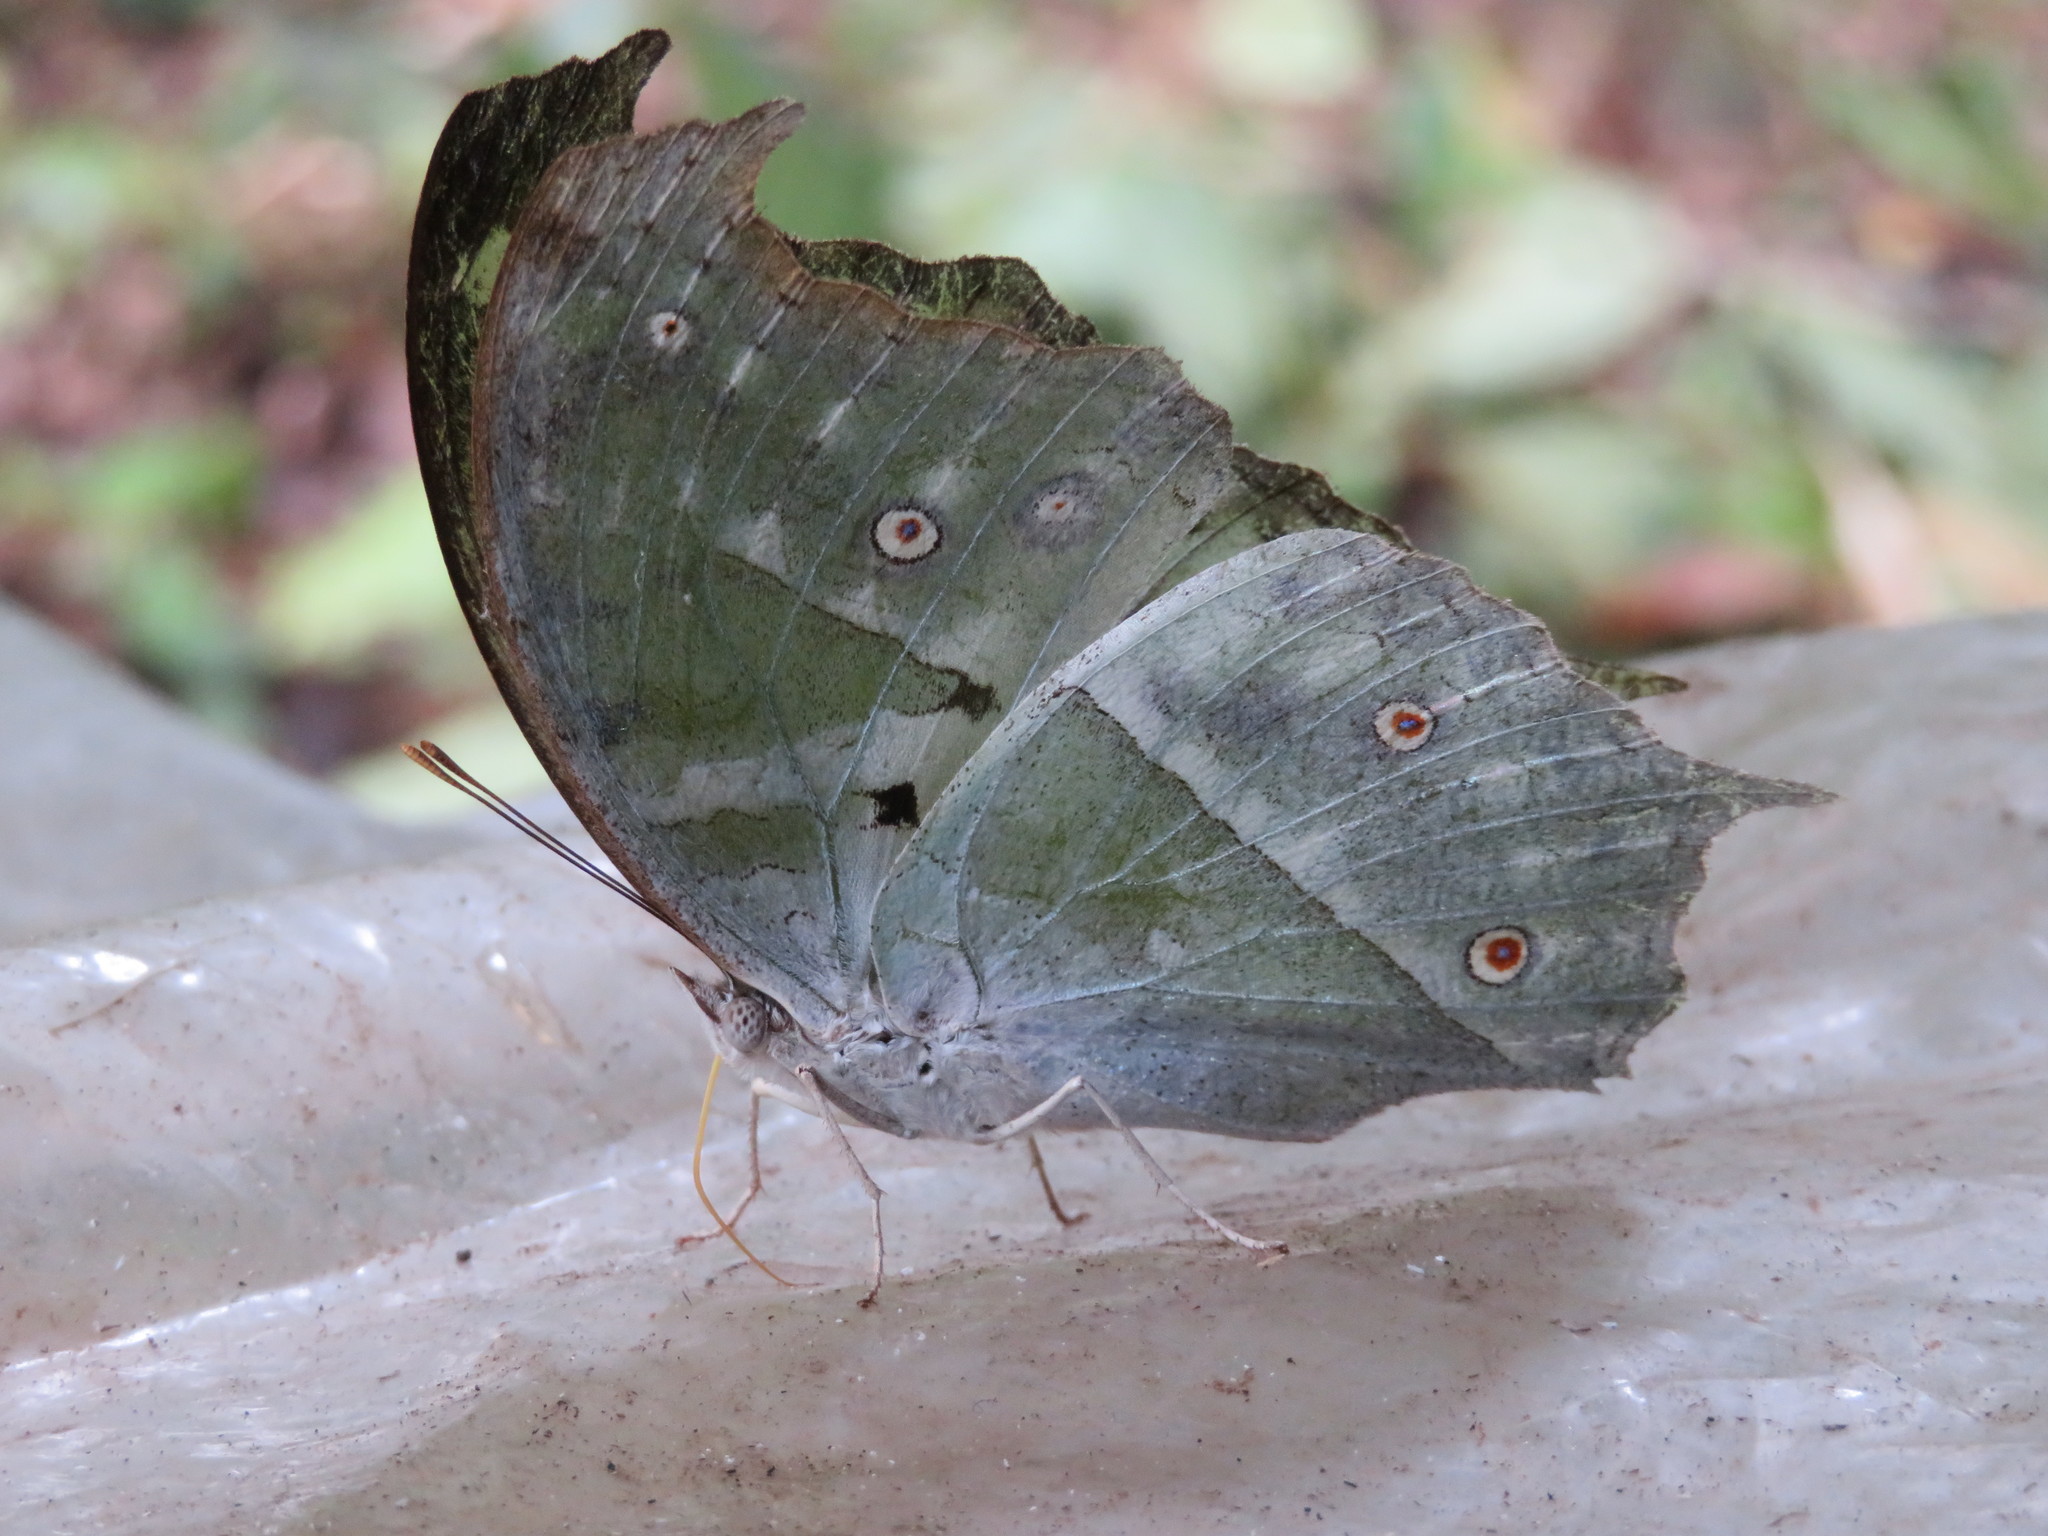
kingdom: Animalia
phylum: Arthropoda
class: Insecta
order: Lepidoptera
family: Nymphalidae
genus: Salamis
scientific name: Salamis Protogoniomorpha parhassus
